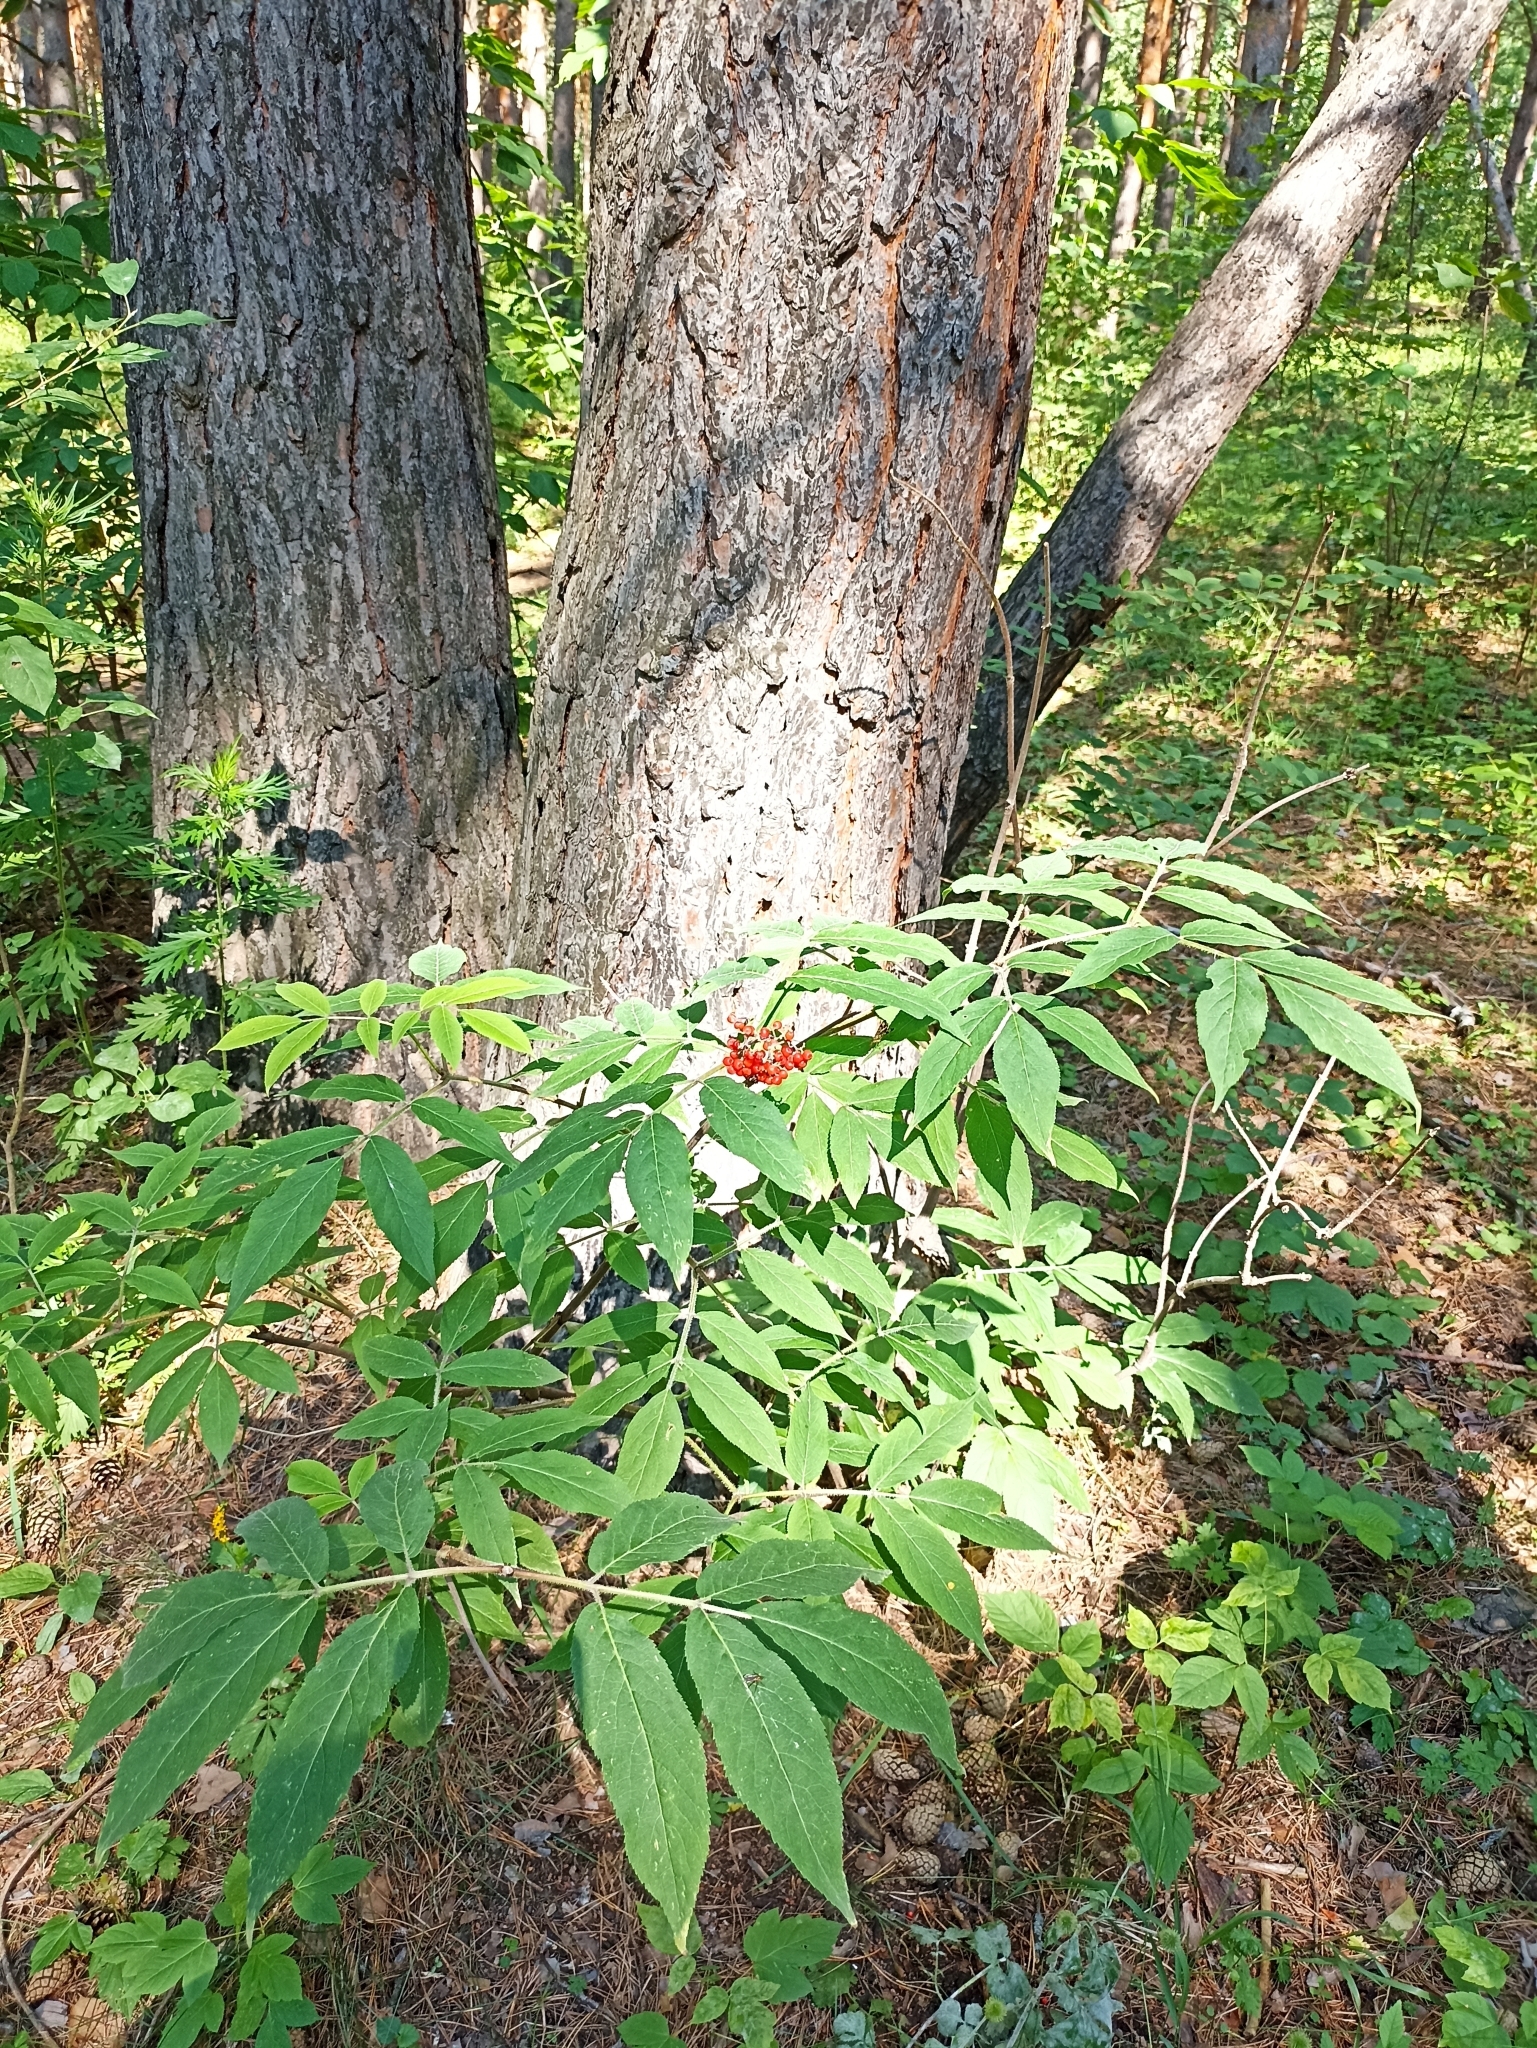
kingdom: Plantae
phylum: Tracheophyta
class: Magnoliopsida
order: Dipsacales
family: Viburnaceae
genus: Sambucus
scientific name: Sambucus sibirica
